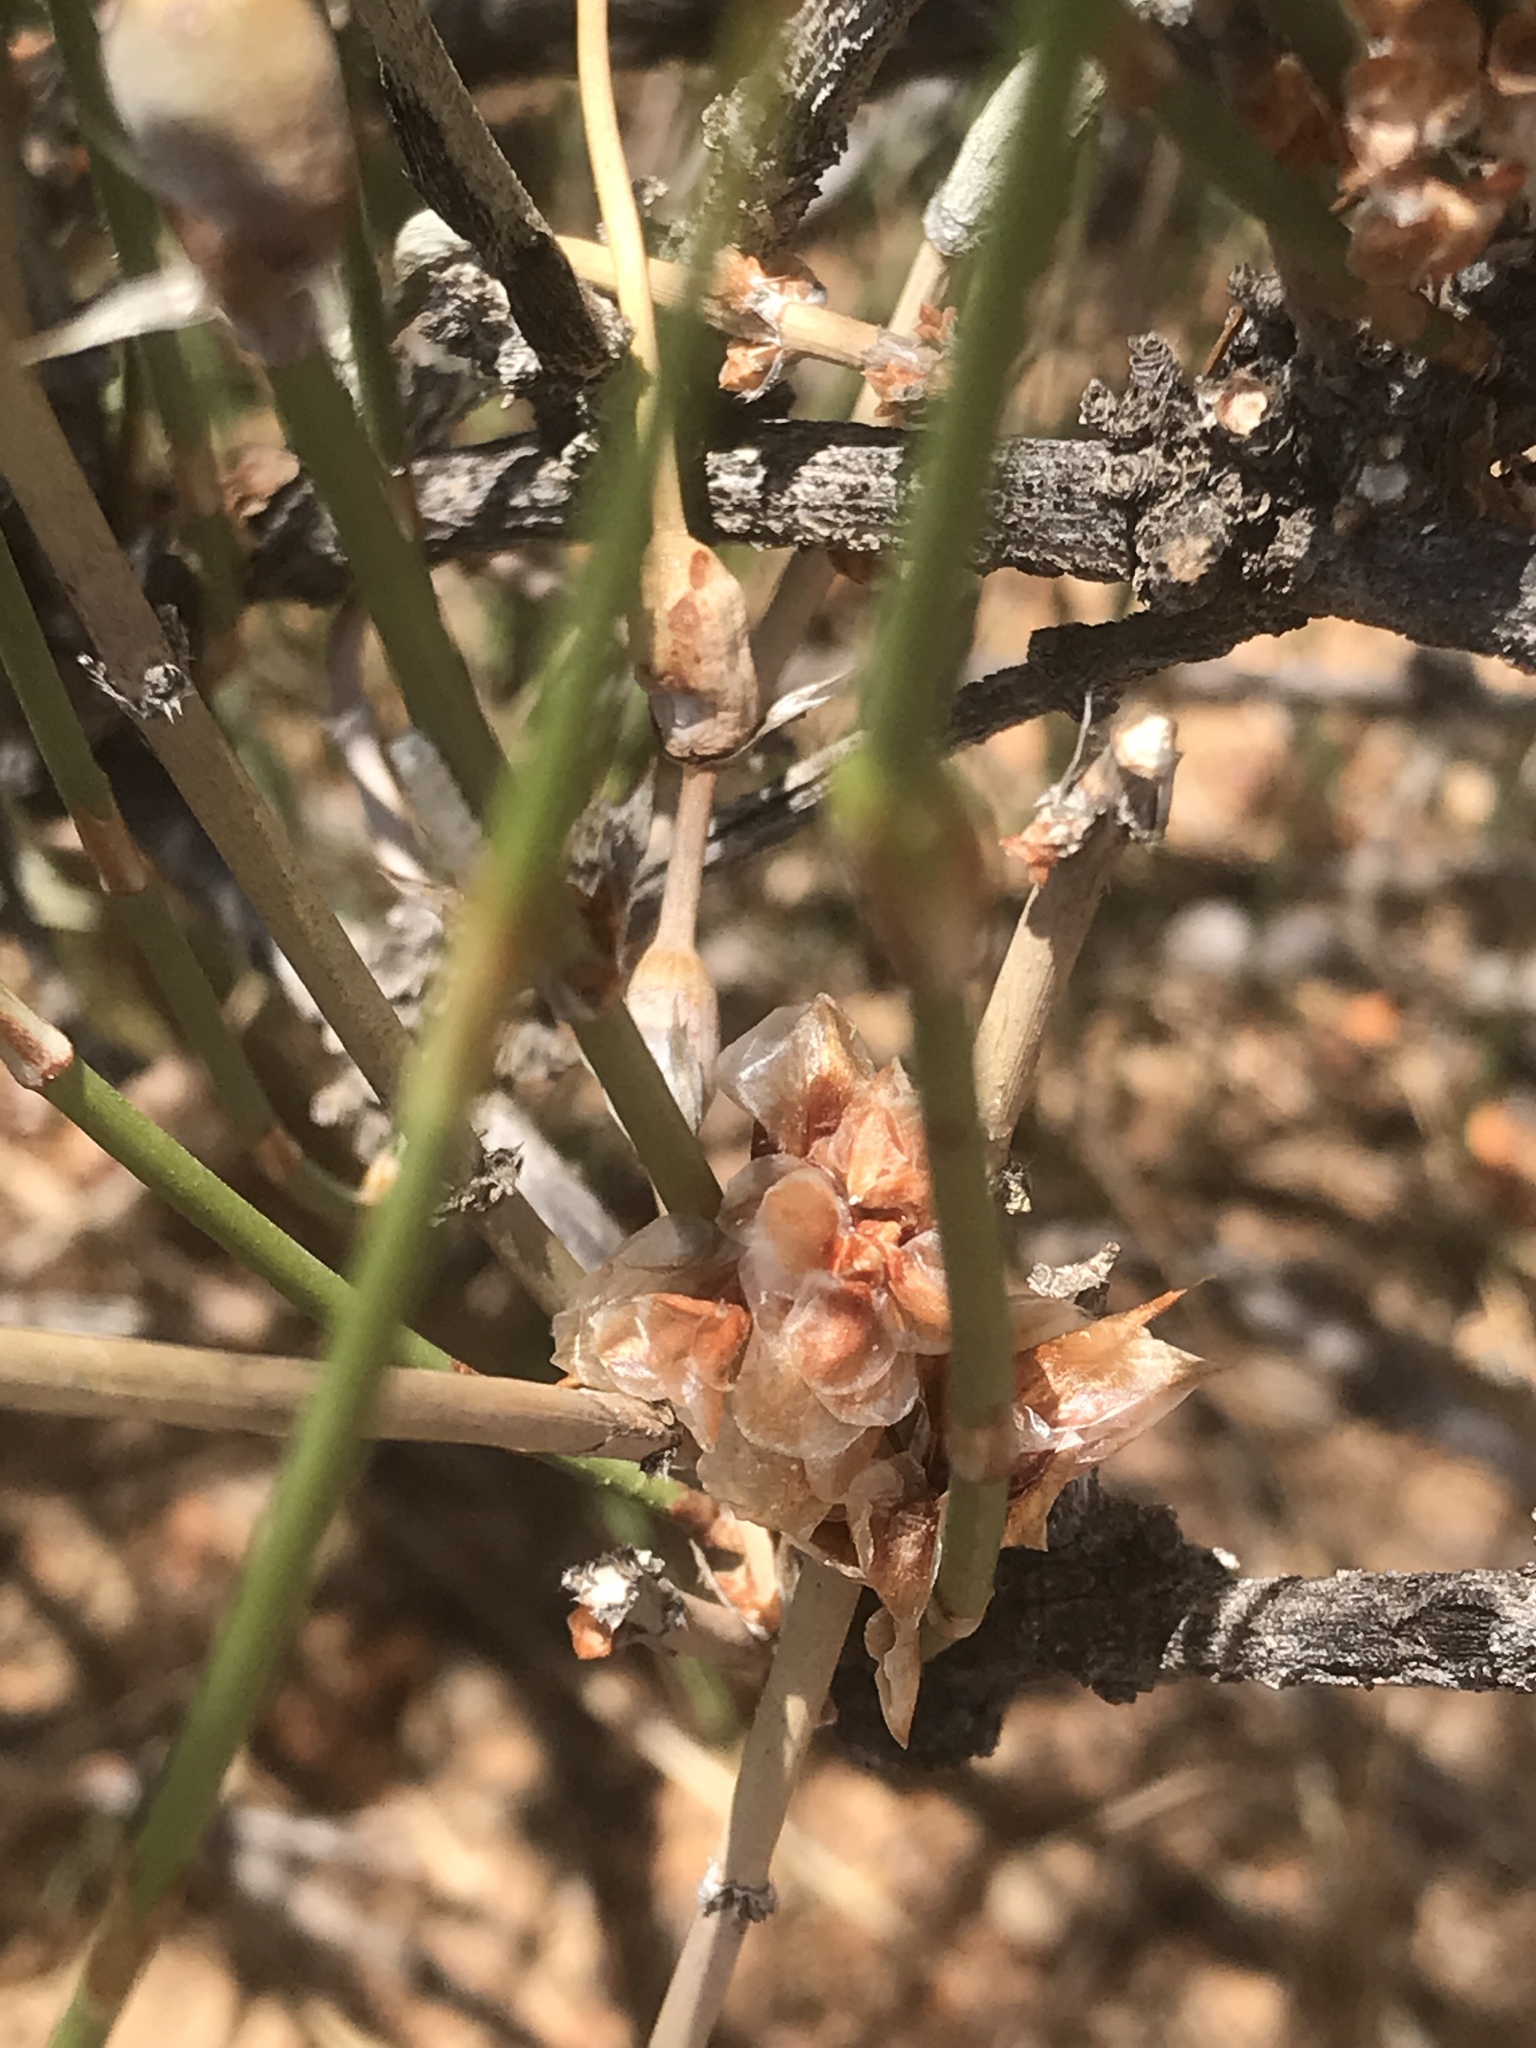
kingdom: Plantae
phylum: Tracheophyta
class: Gnetopsida
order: Ephedrales
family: Ephedraceae
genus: Ephedra
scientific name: Ephedra trifurca
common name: Mexican-tea
